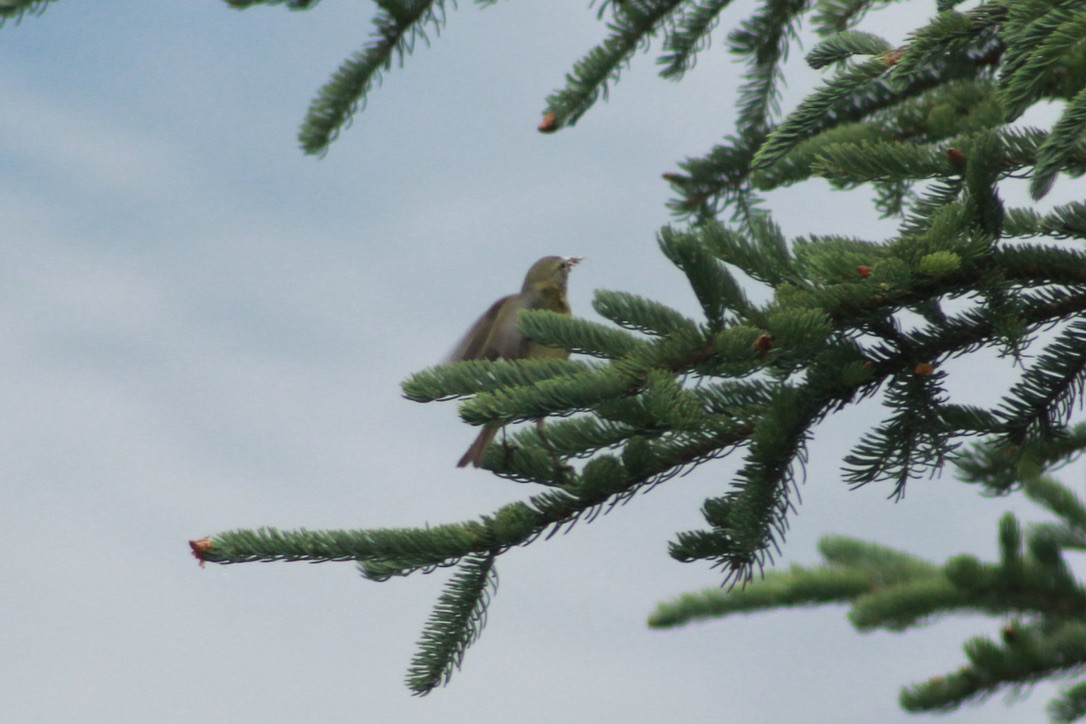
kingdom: Animalia
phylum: Chordata
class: Aves
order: Passeriformes
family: Parulidae
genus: Leiothlypis
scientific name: Leiothlypis celata
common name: Orange-crowned warbler
